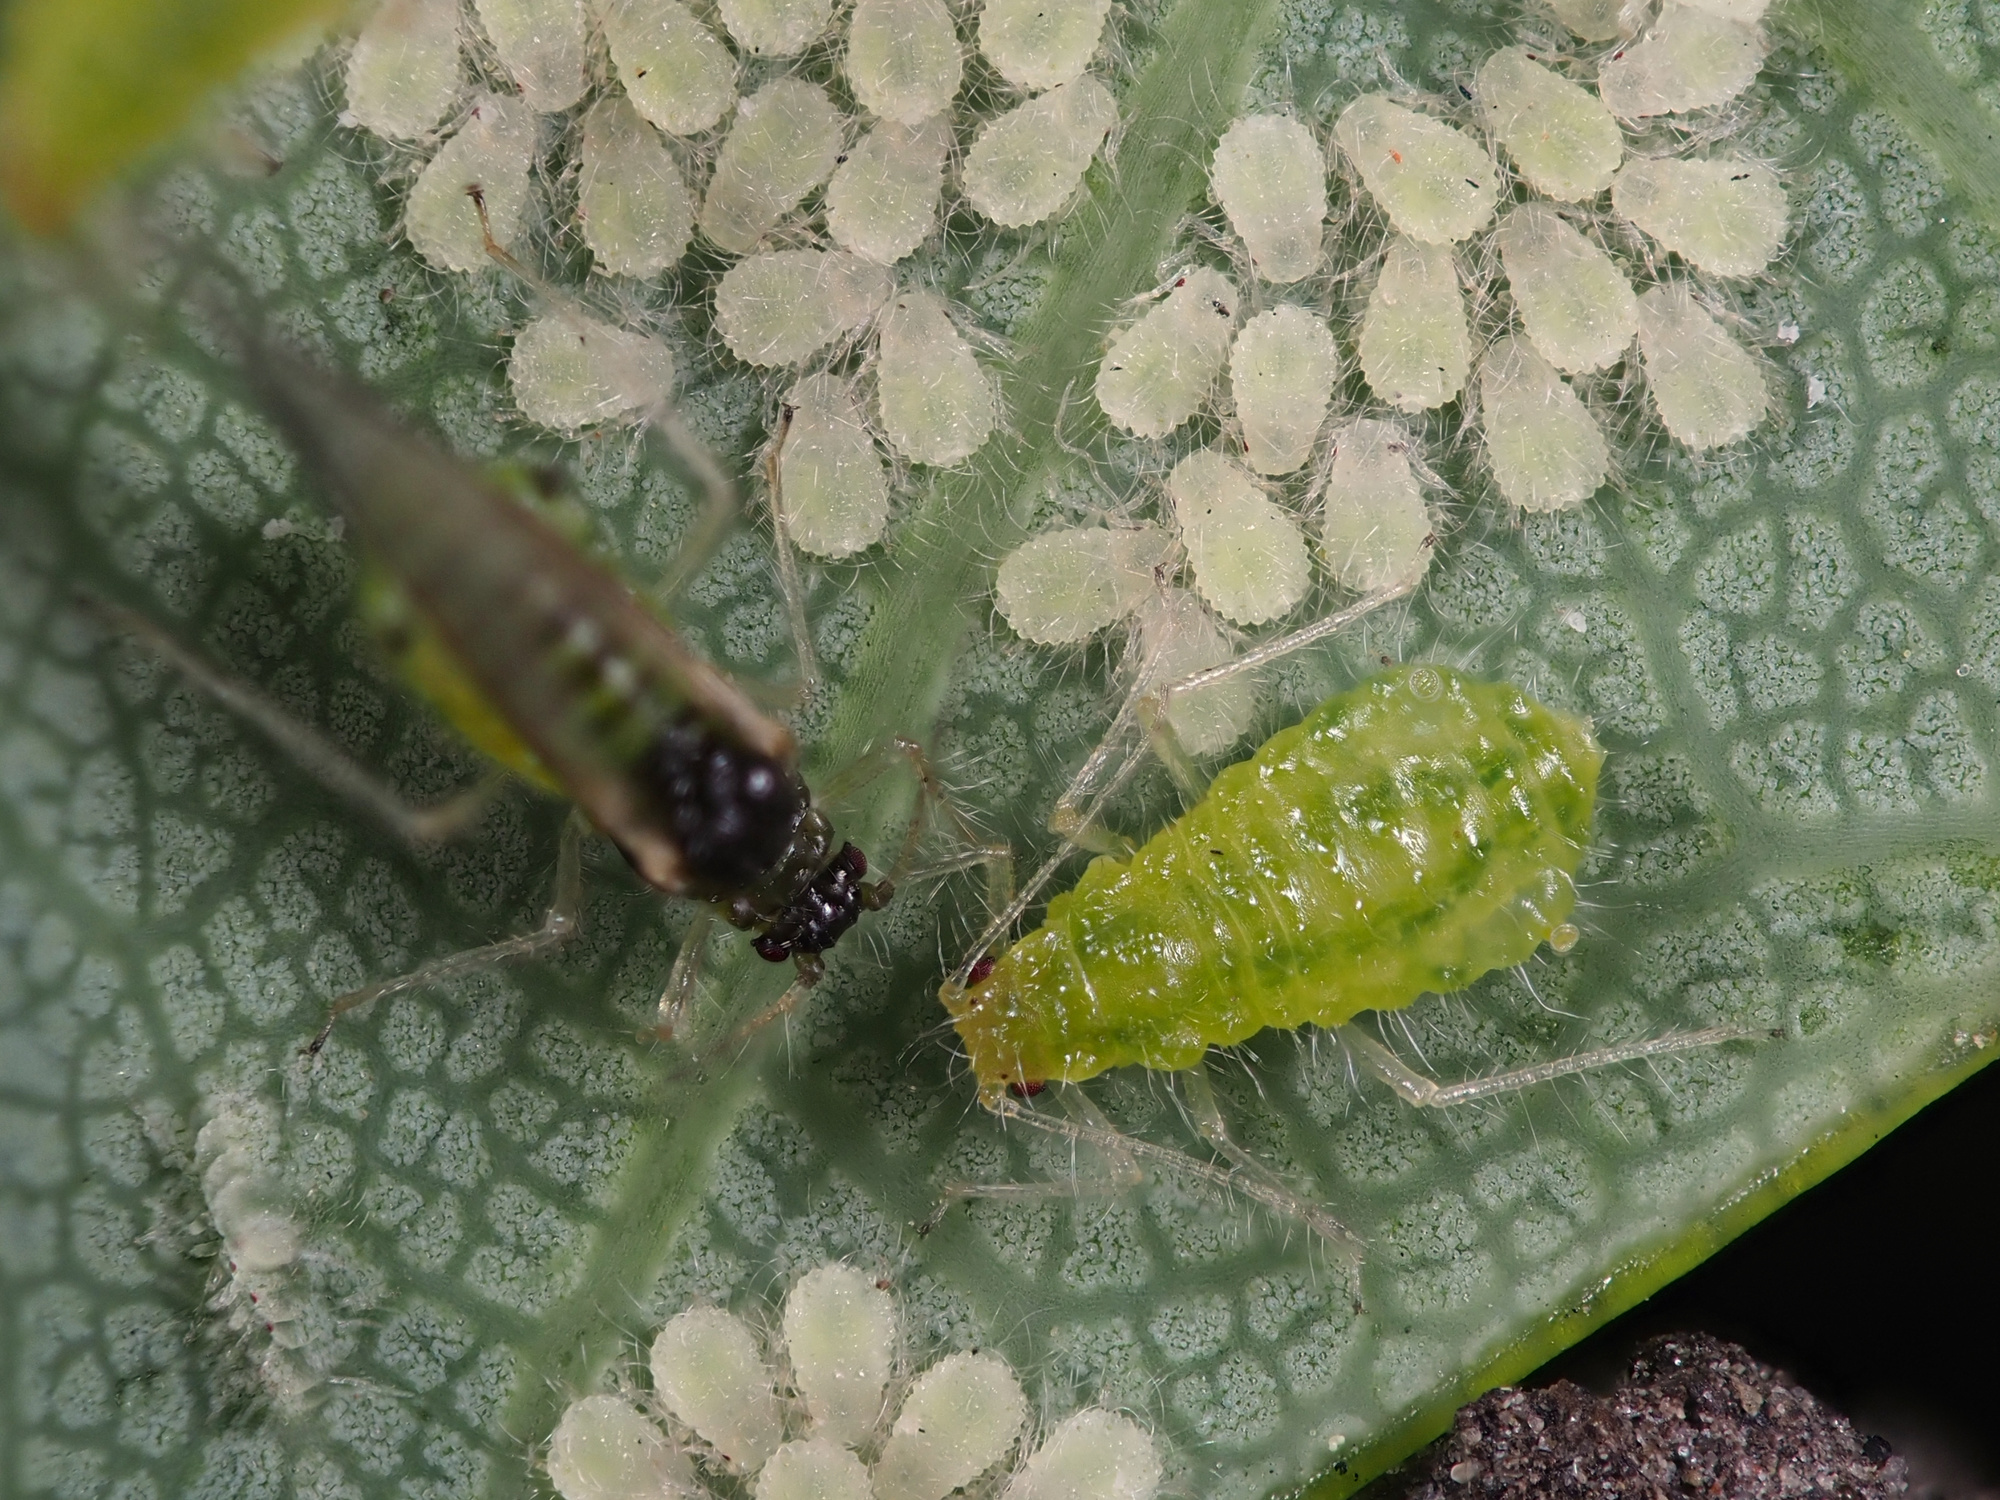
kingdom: Animalia
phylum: Arthropoda
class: Insecta
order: Hemiptera
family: Aphididae
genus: Periphyllus
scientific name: Periphyllus acericola
